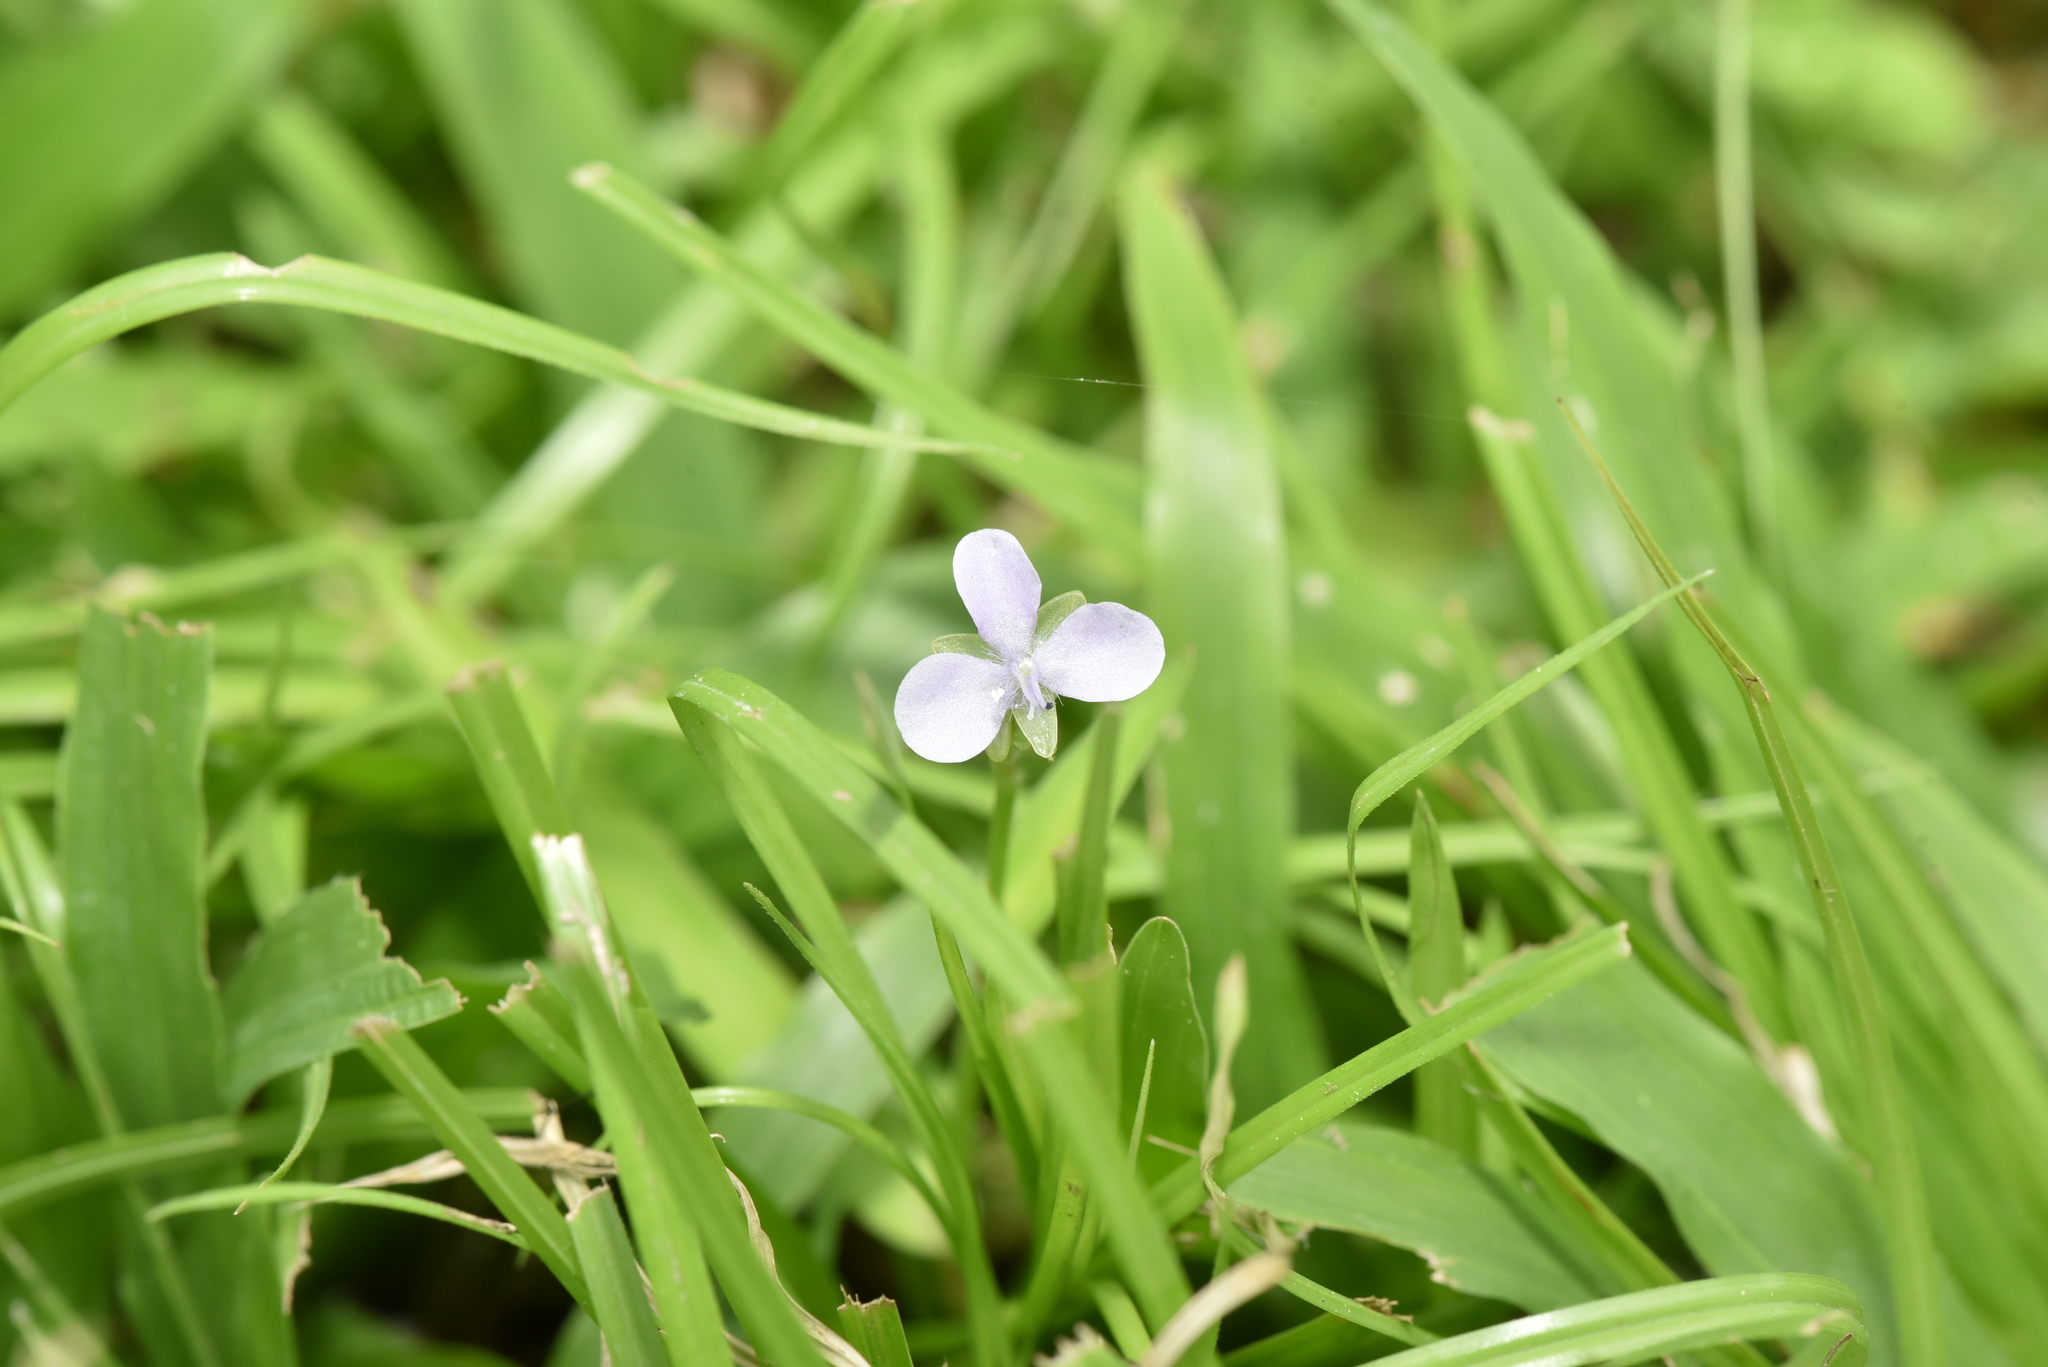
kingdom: Plantae
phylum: Tracheophyta
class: Liliopsida
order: Commelinales
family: Commelinaceae
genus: Murdannia
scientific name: Murdannia loriformis
